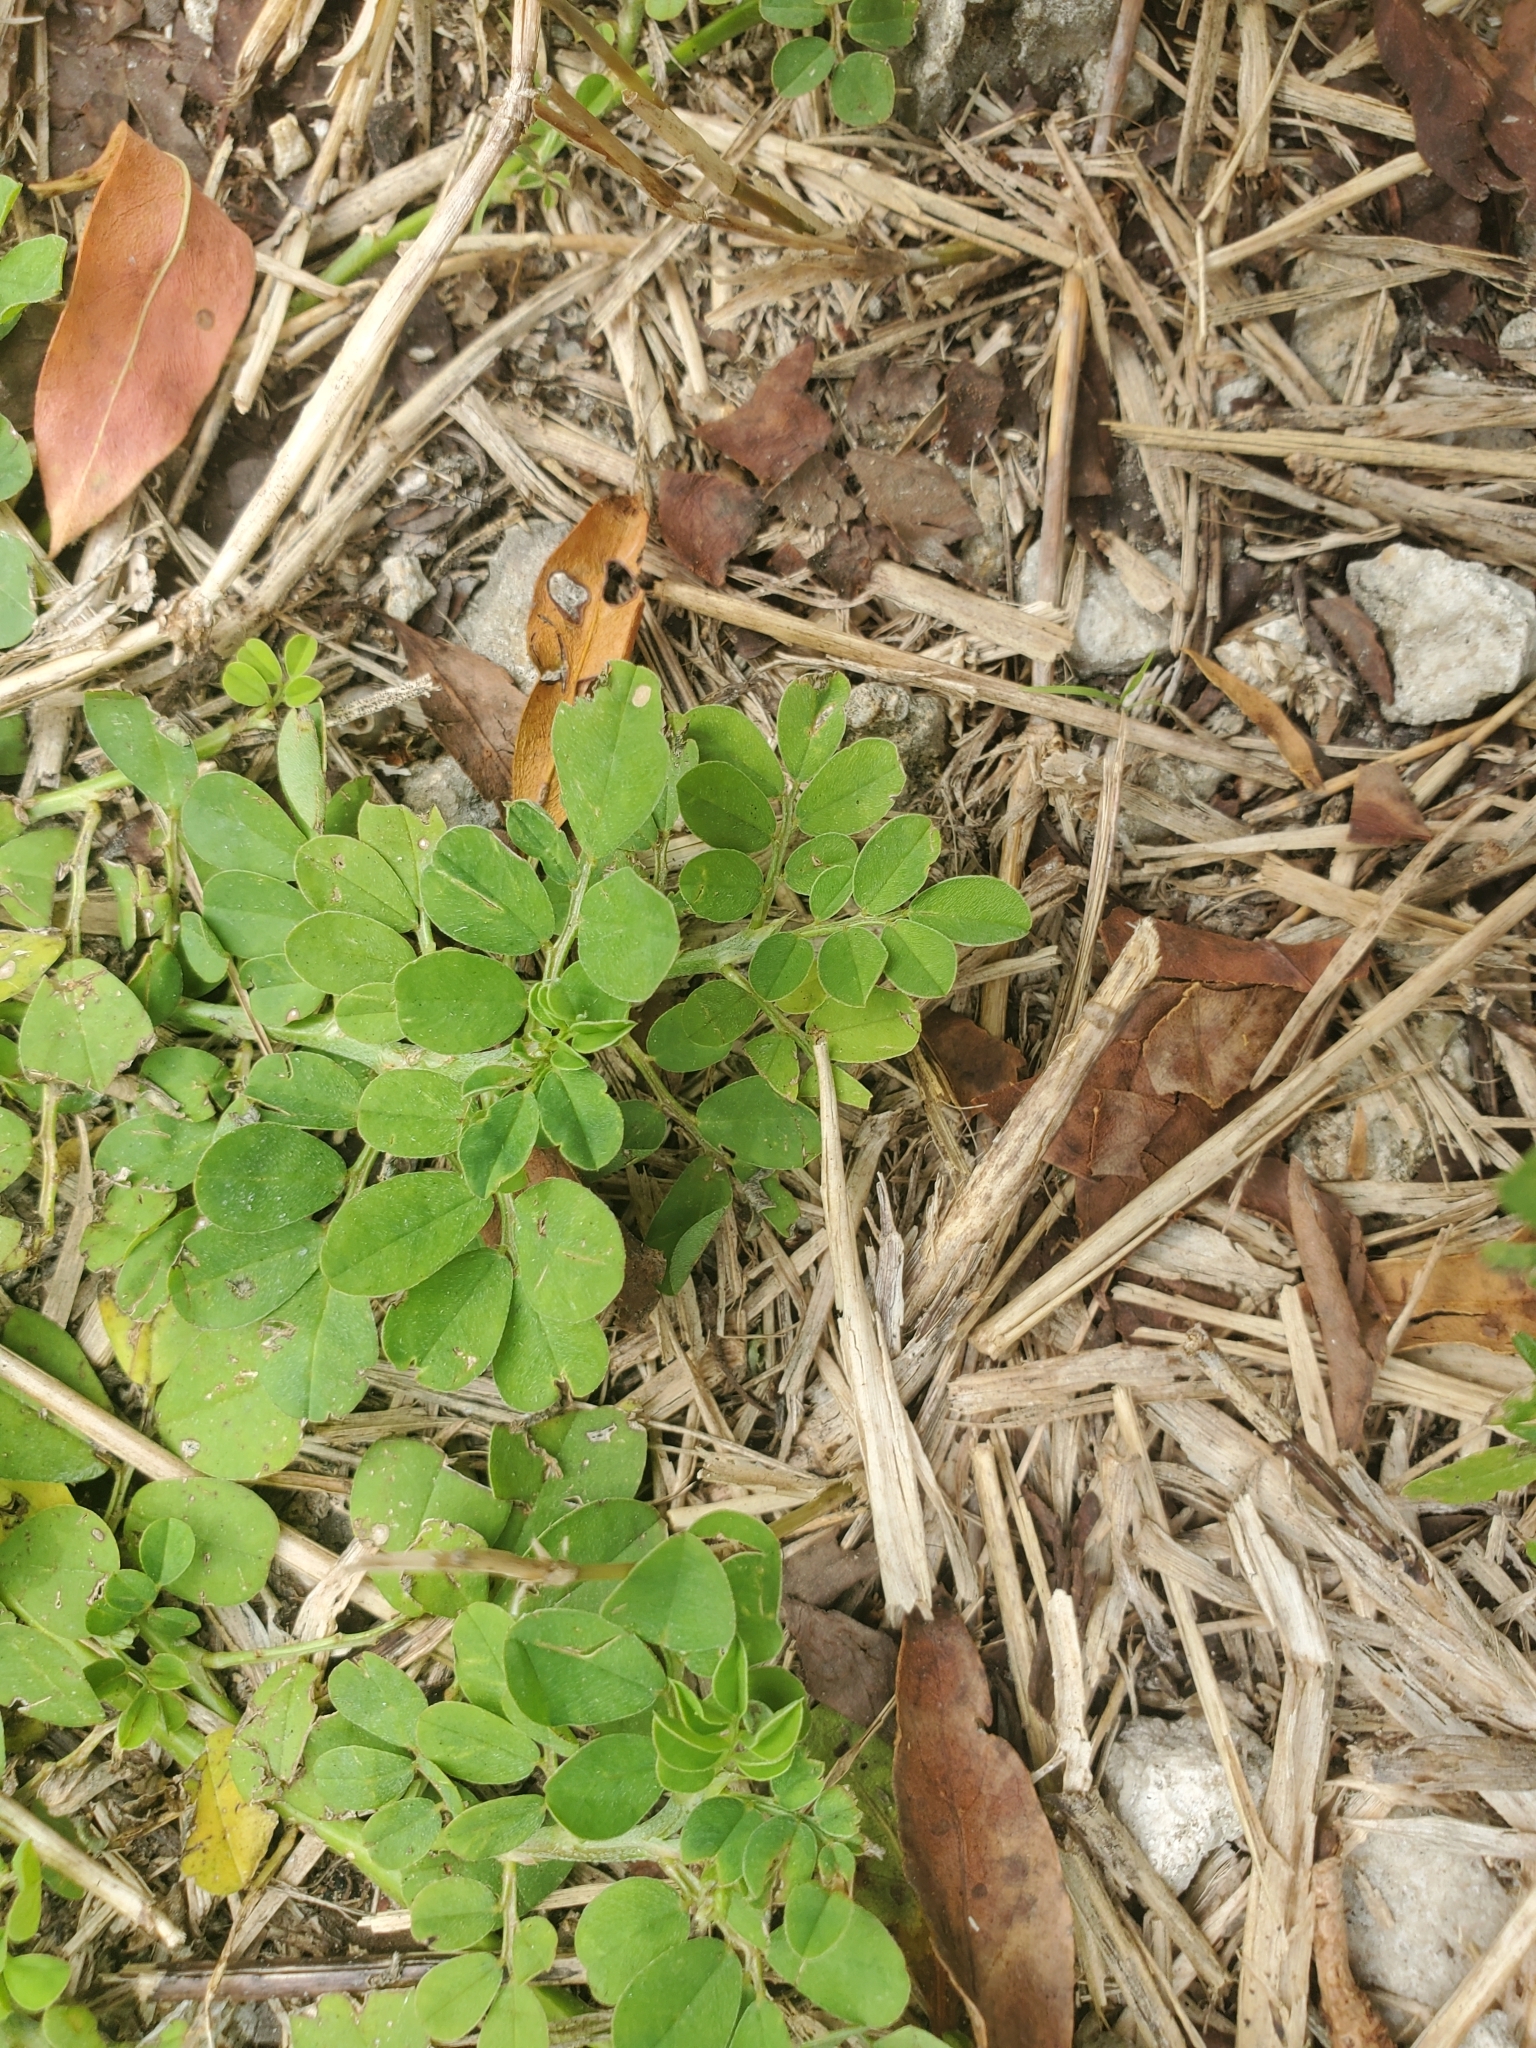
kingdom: Plantae
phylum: Tracheophyta
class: Magnoliopsida
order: Fabales
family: Fabaceae
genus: Indigofera
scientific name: Indigofera spicata
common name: Creeping indigo
